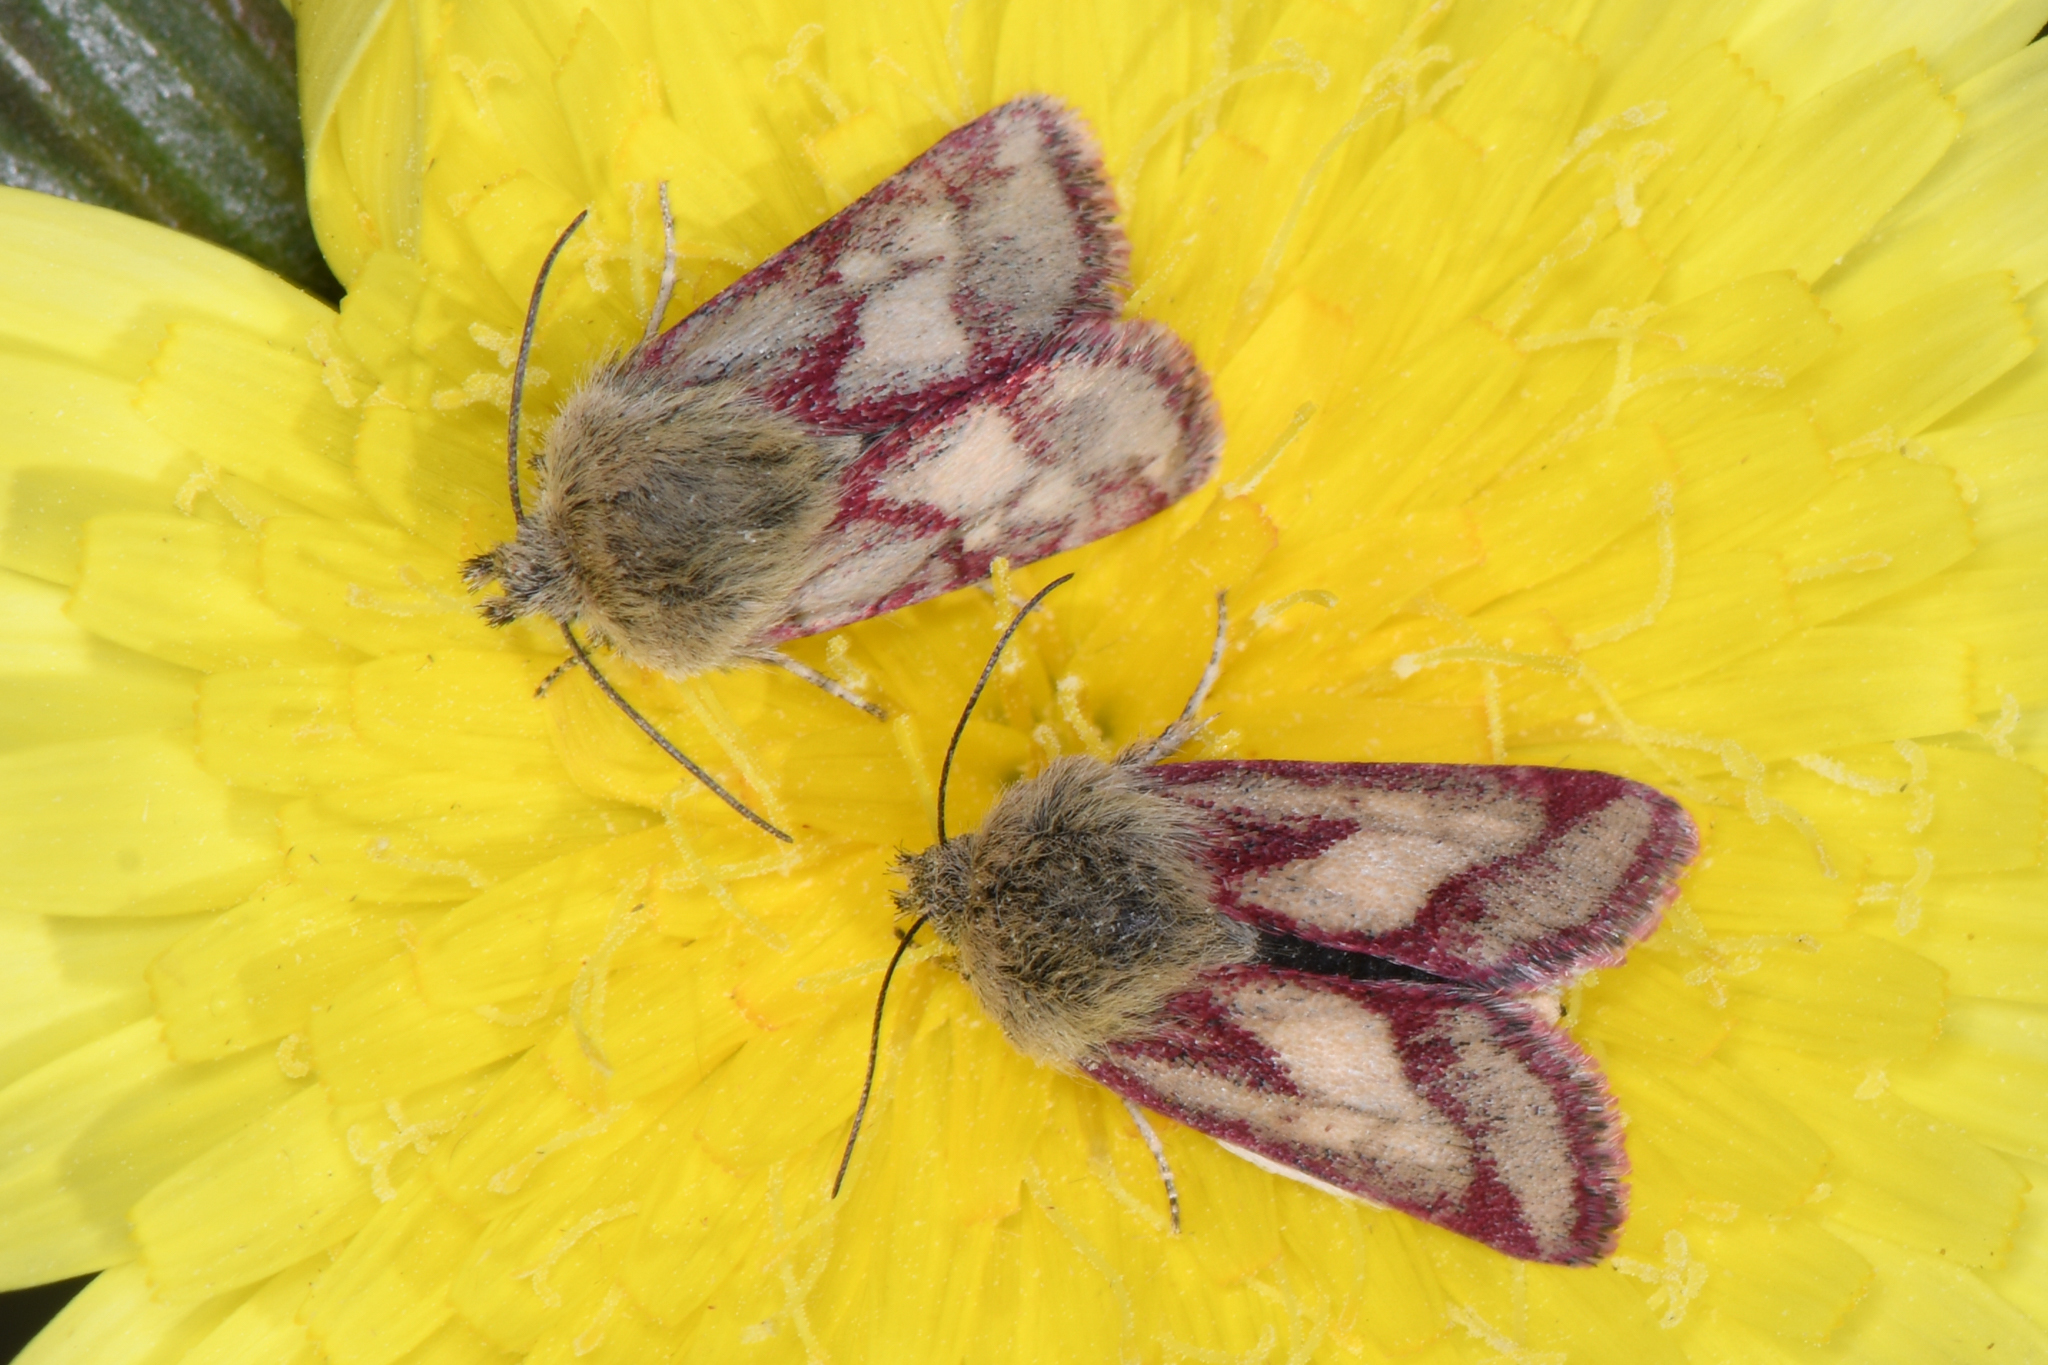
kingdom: Animalia
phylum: Arthropoda
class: Insecta
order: Lepidoptera
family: Noctuidae
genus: Heliolonche
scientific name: Heliolonche pictipennis
